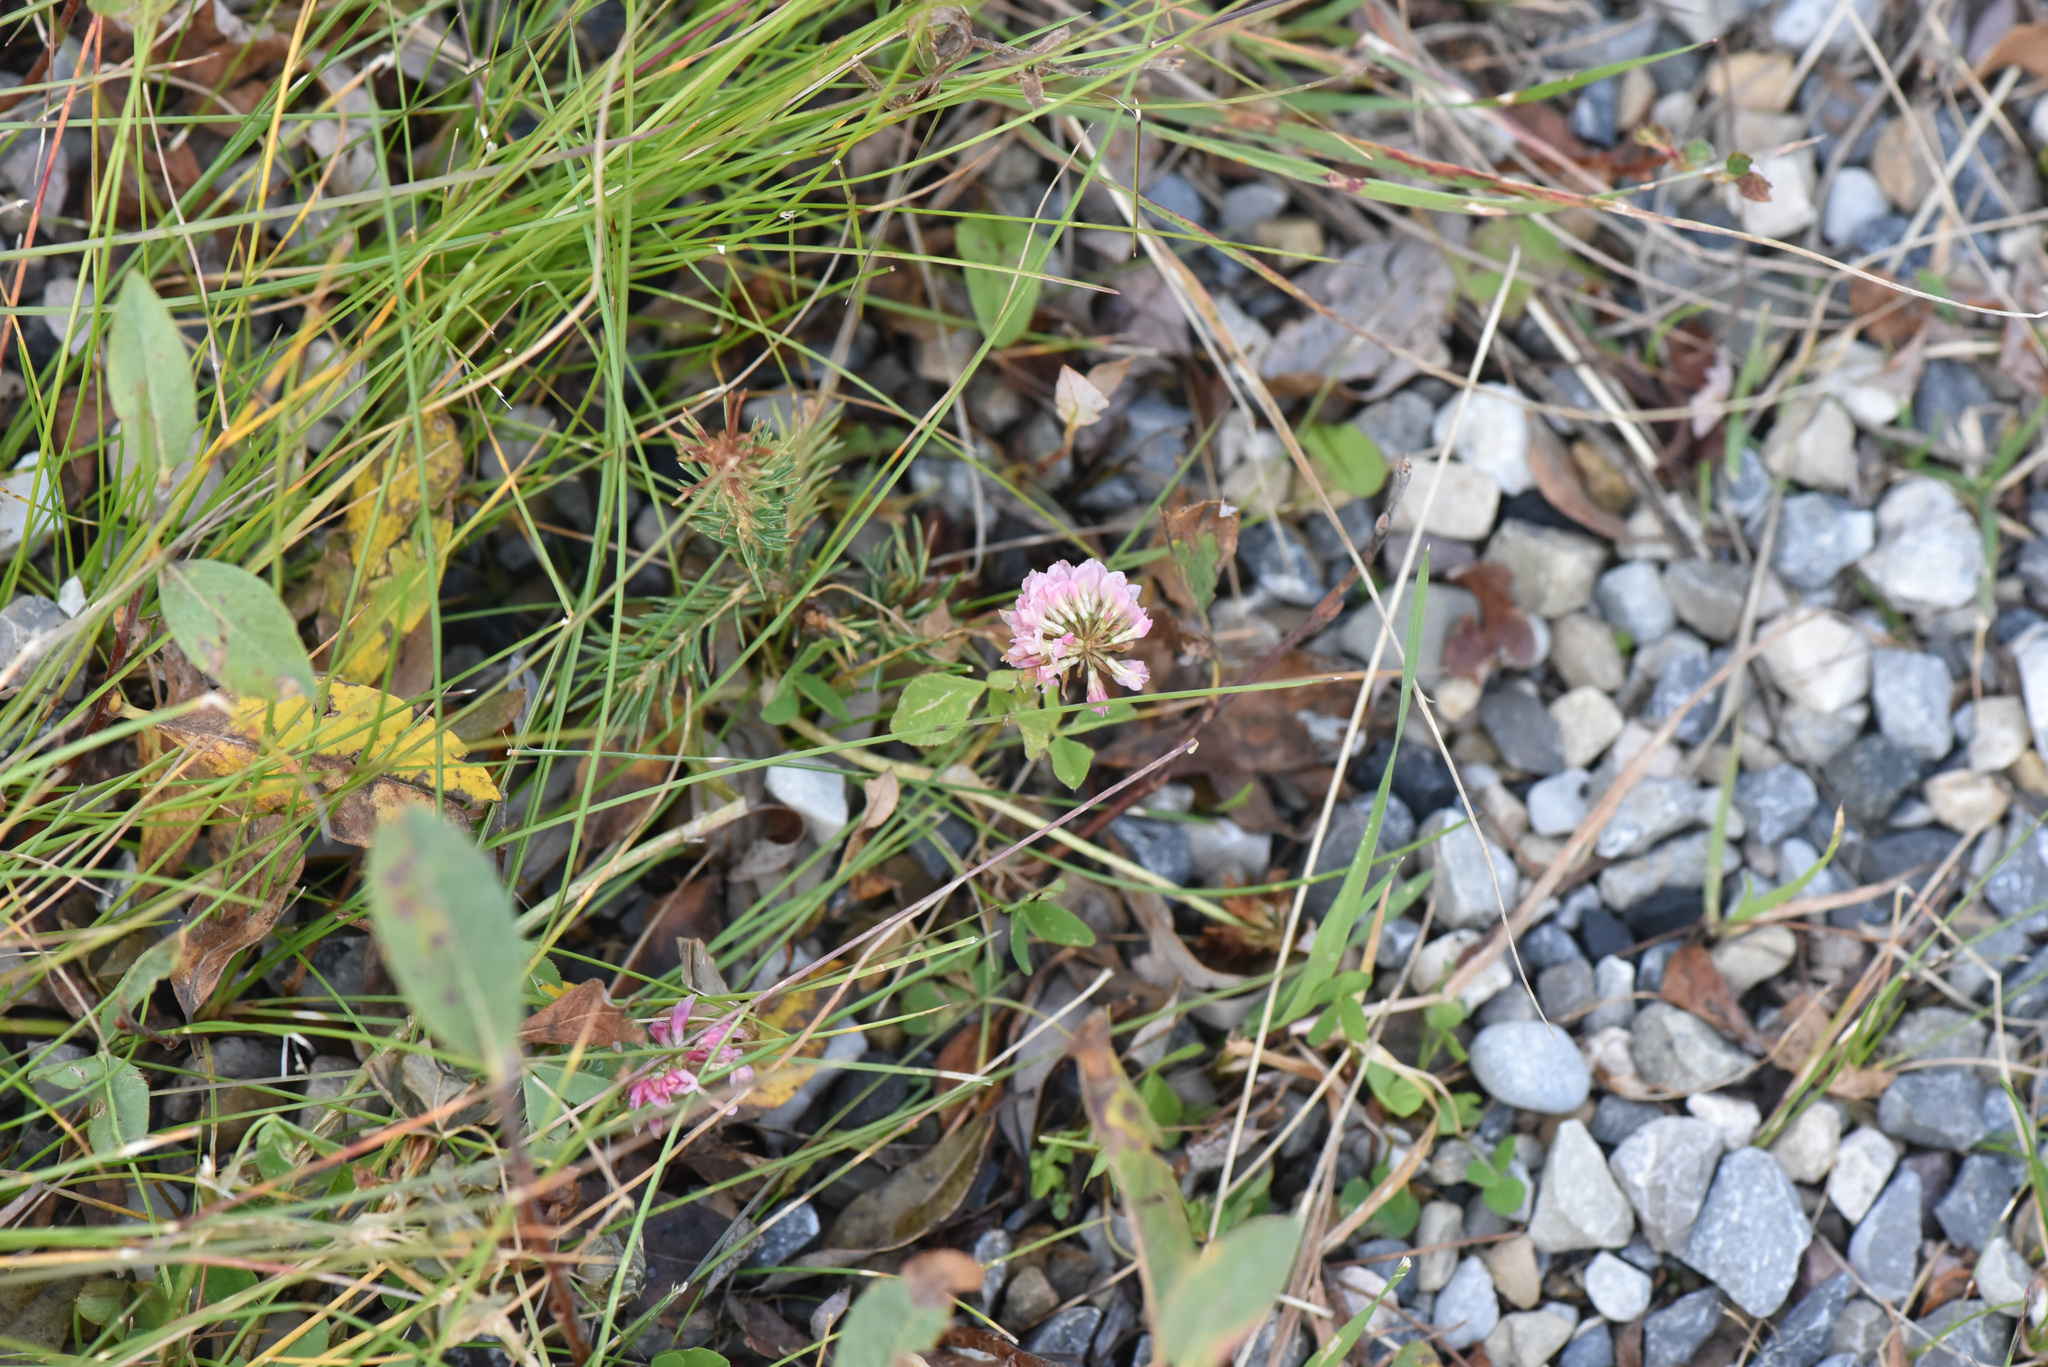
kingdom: Plantae
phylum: Tracheophyta
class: Magnoliopsida
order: Fabales
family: Fabaceae
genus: Trifolium
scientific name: Trifolium hybridum
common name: Alsike clover
